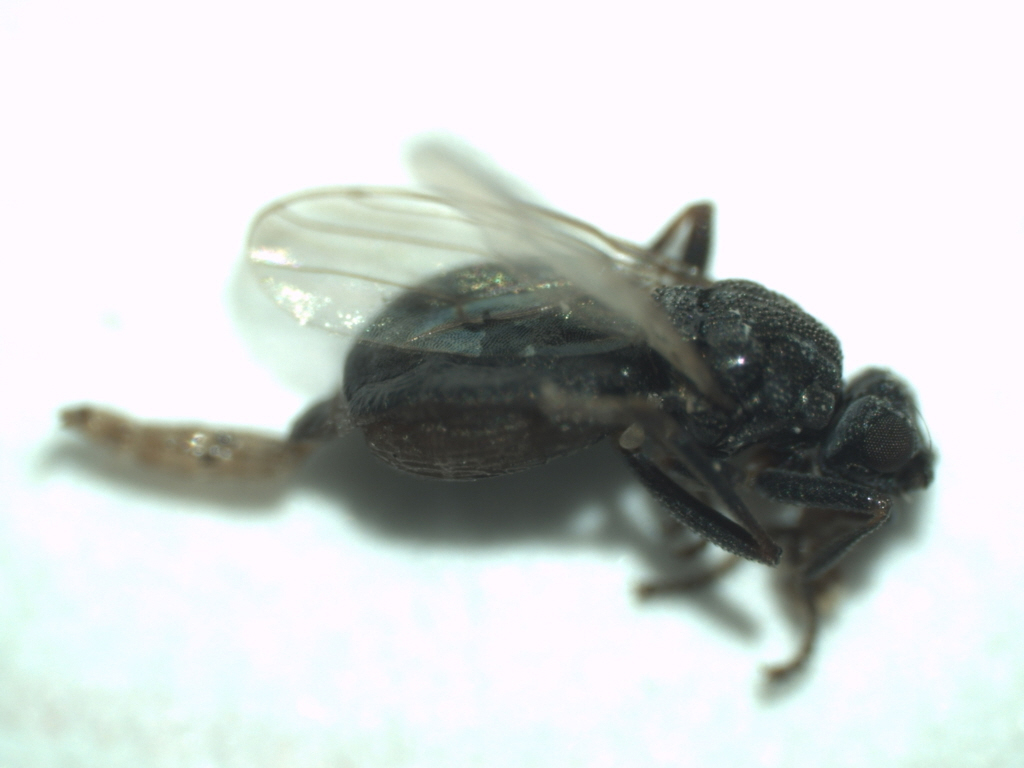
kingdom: Animalia
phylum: Arthropoda
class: Insecta
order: Diptera
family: Sphaeroceridae
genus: Ischiolepta
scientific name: Ischiolepta vaporariorum
